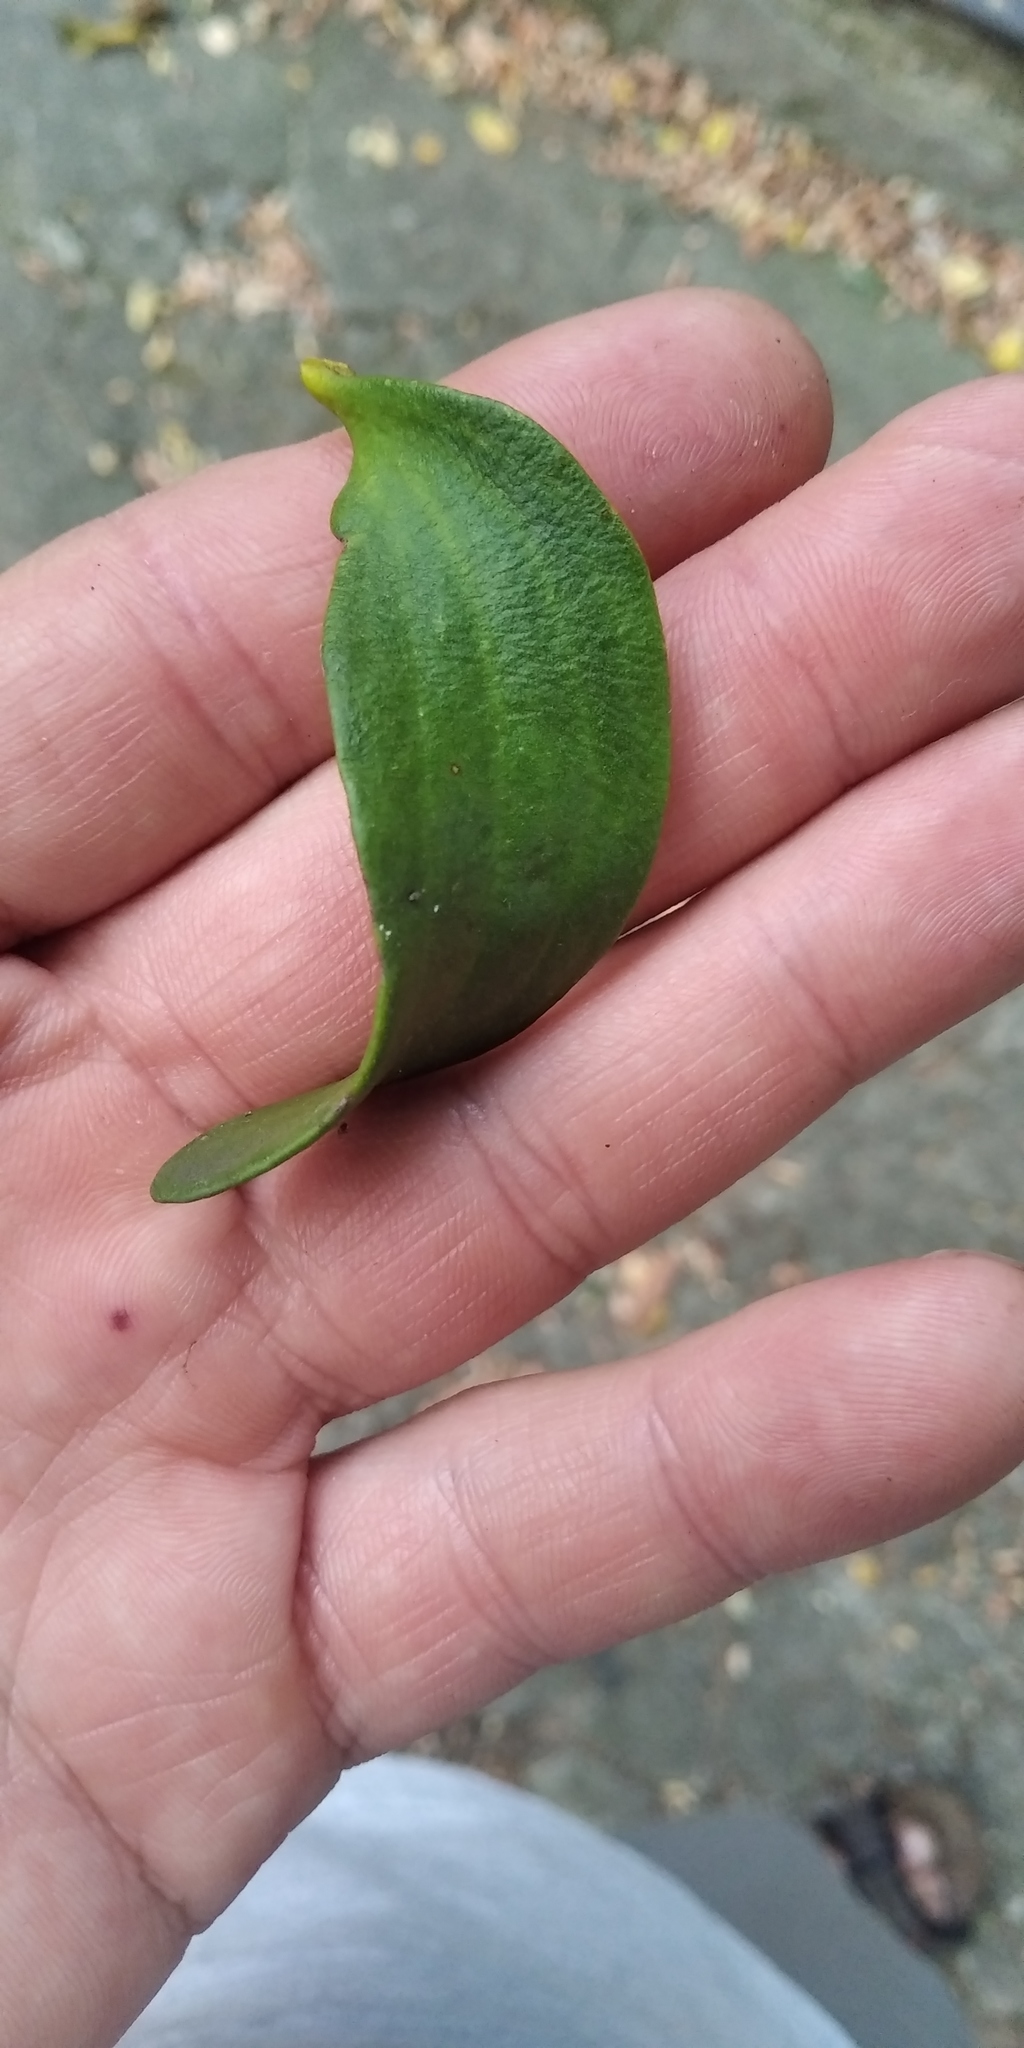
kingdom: Plantae
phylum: Tracheophyta
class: Magnoliopsida
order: Santalales
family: Viscaceae
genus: Viscum
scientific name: Viscum album
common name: Mistletoe
